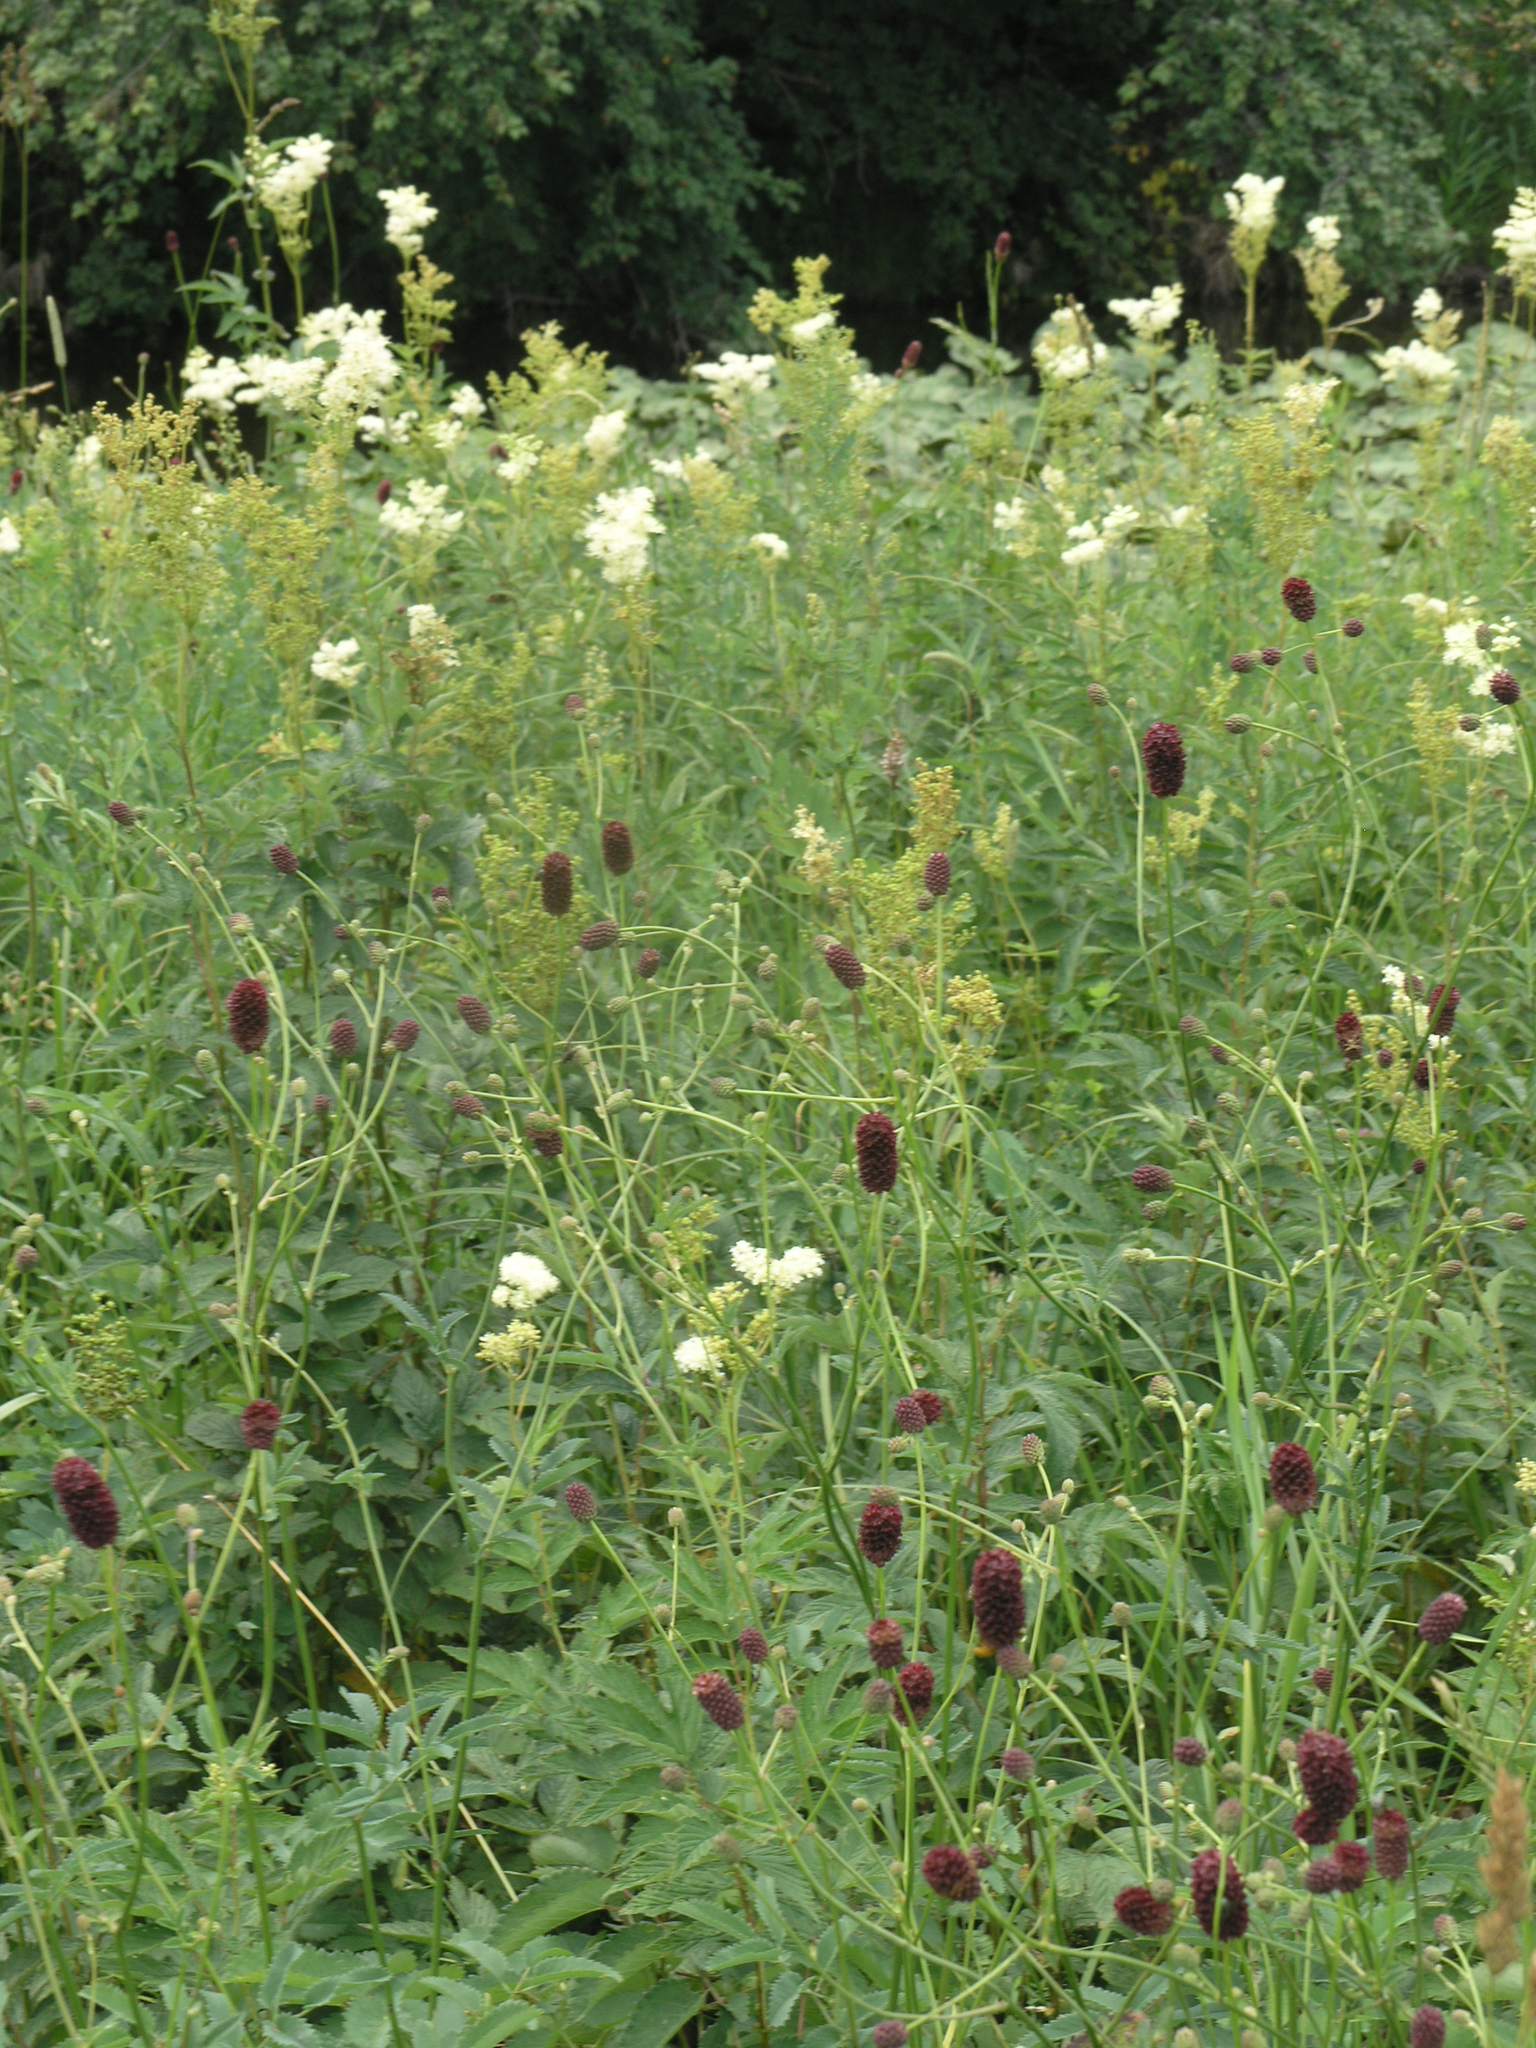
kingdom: Plantae
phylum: Tracheophyta
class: Magnoliopsida
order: Rosales
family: Rosaceae
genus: Sanguisorba
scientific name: Sanguisorba officinalis
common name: Great burnet
